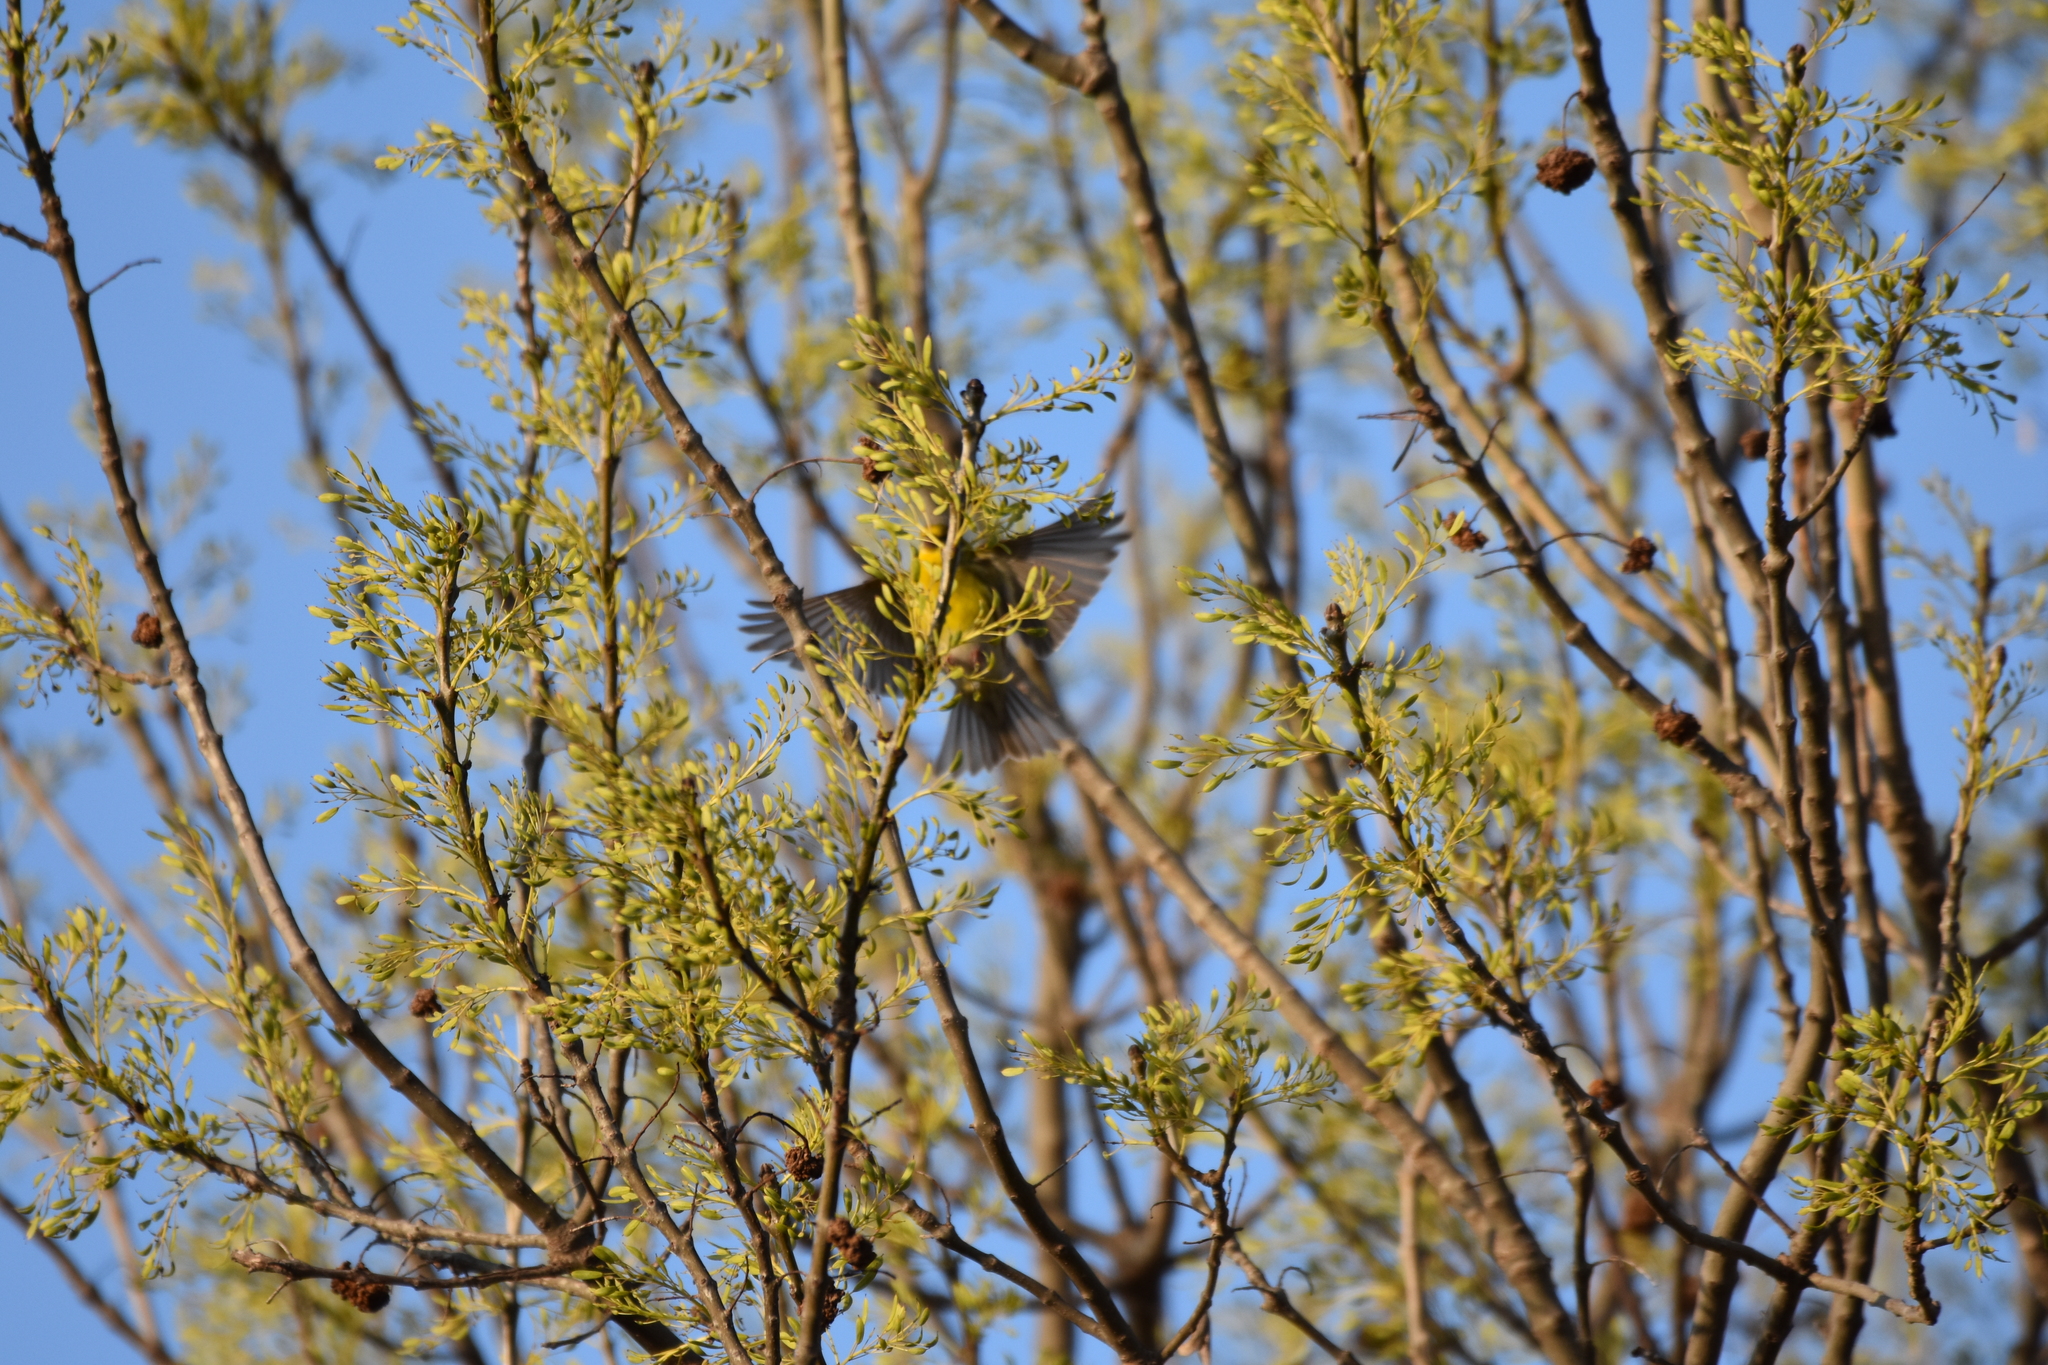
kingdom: Animalia
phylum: Chordata
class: Aves
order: Passeriformes
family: Fringillidae
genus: Serinus
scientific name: Serinus serinus
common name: European serin
